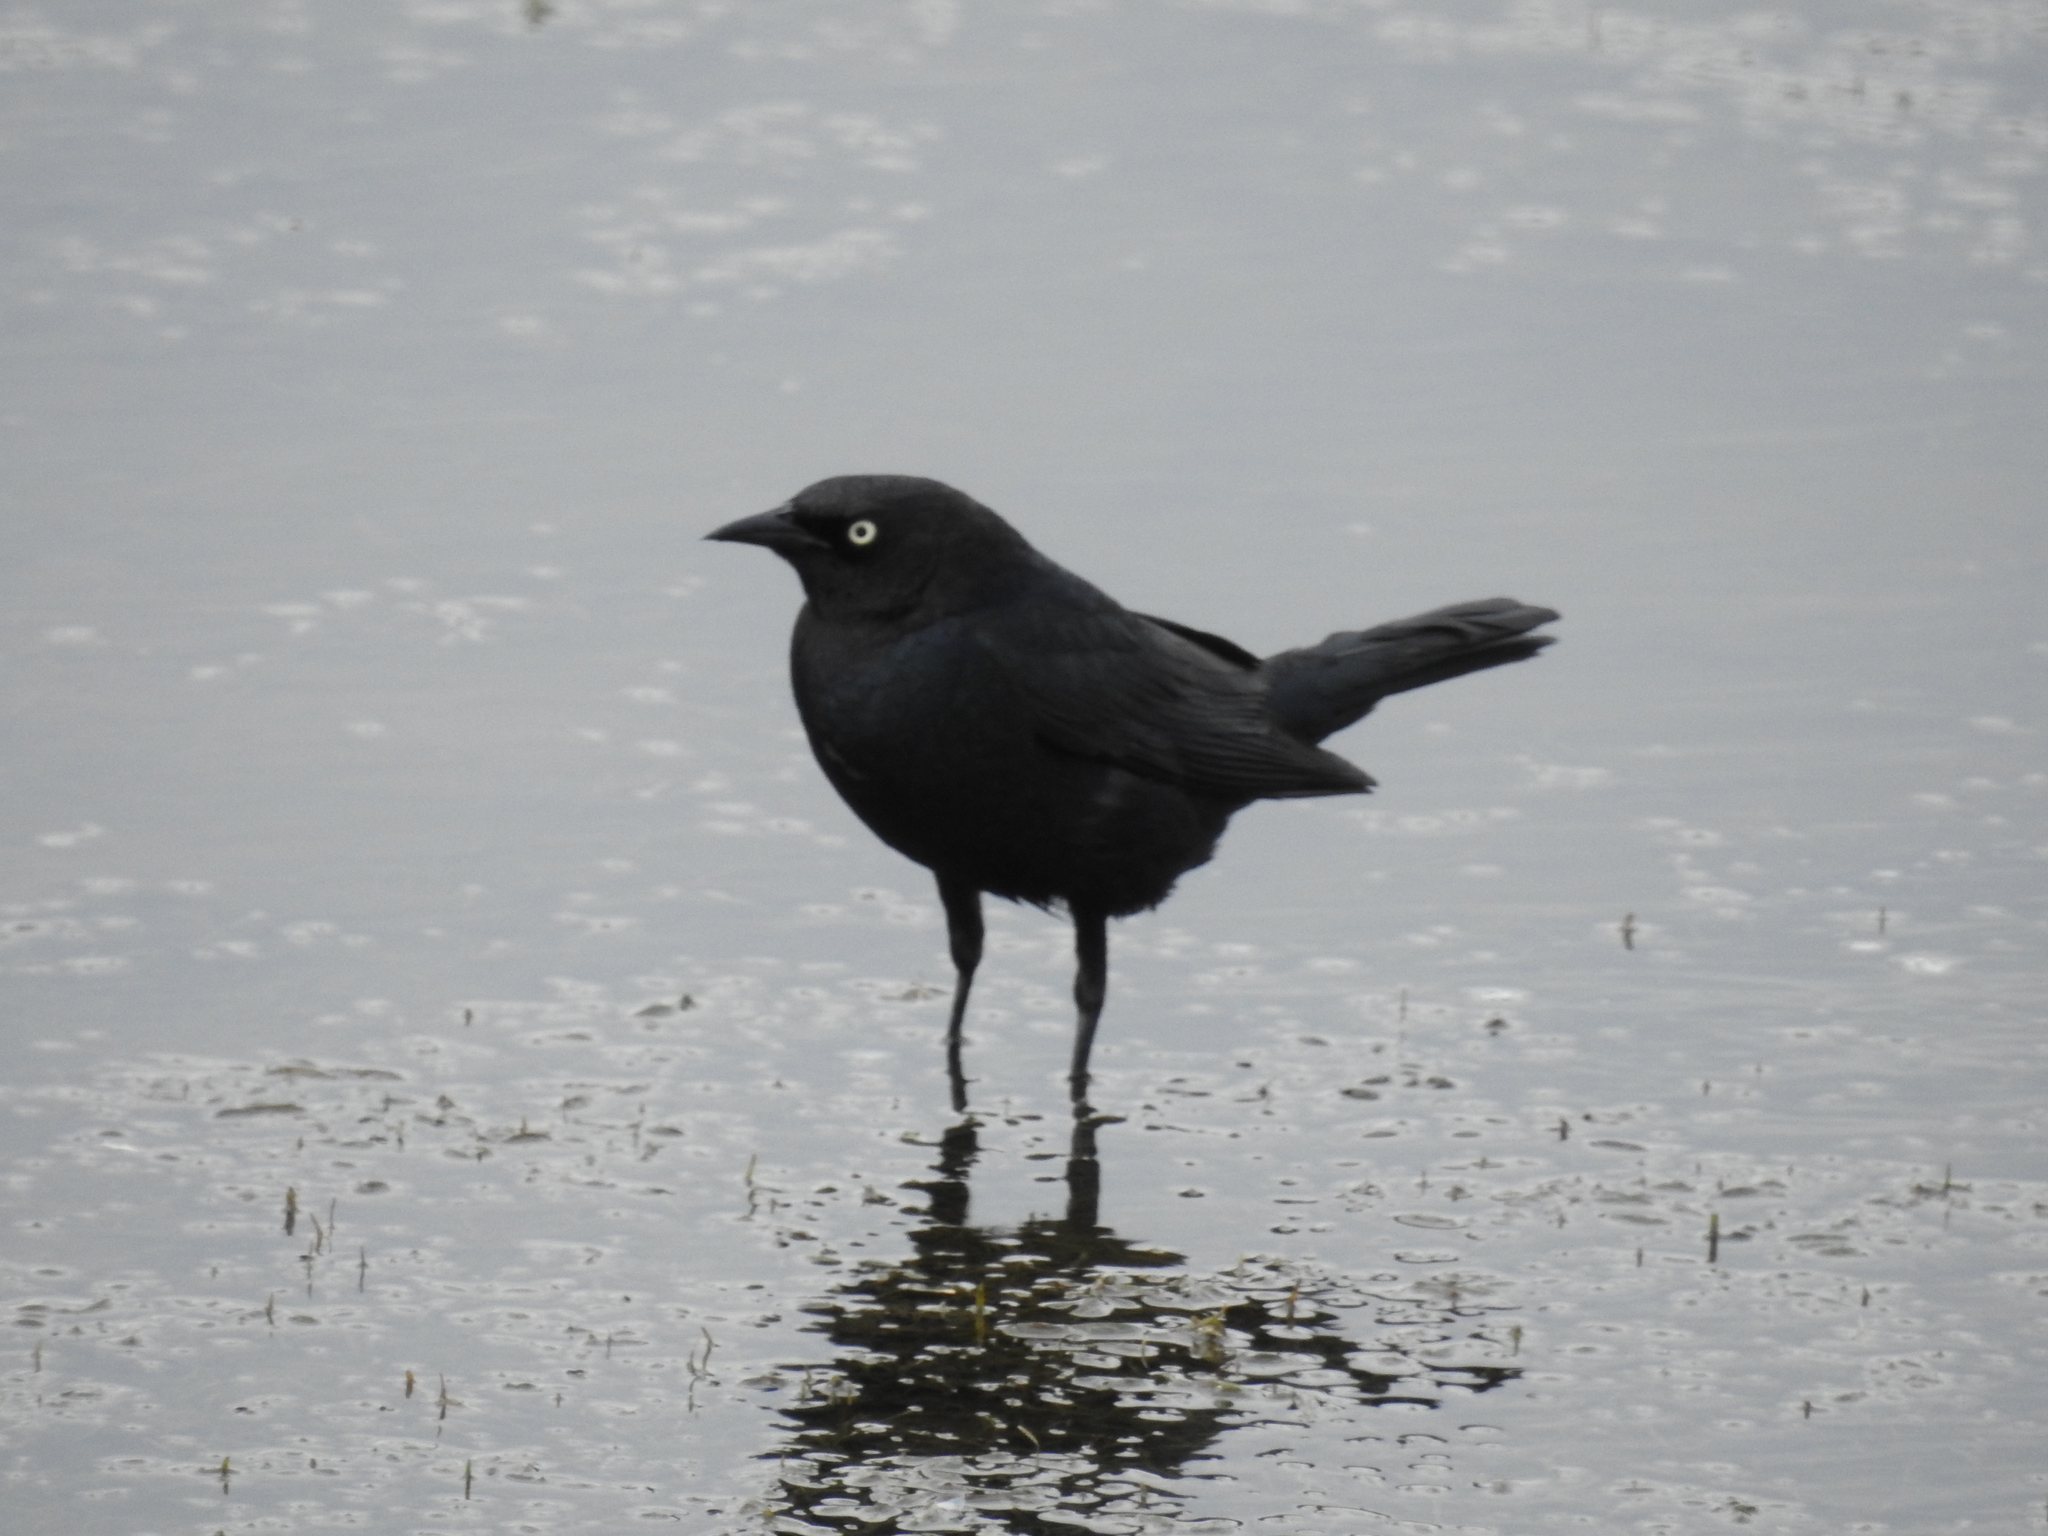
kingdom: Animalia
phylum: Chordata
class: Aves
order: Passeriformes
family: Icteridae
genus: Euphagus
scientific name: Euphagus cyanocephalus
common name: Brewer's blackbird
